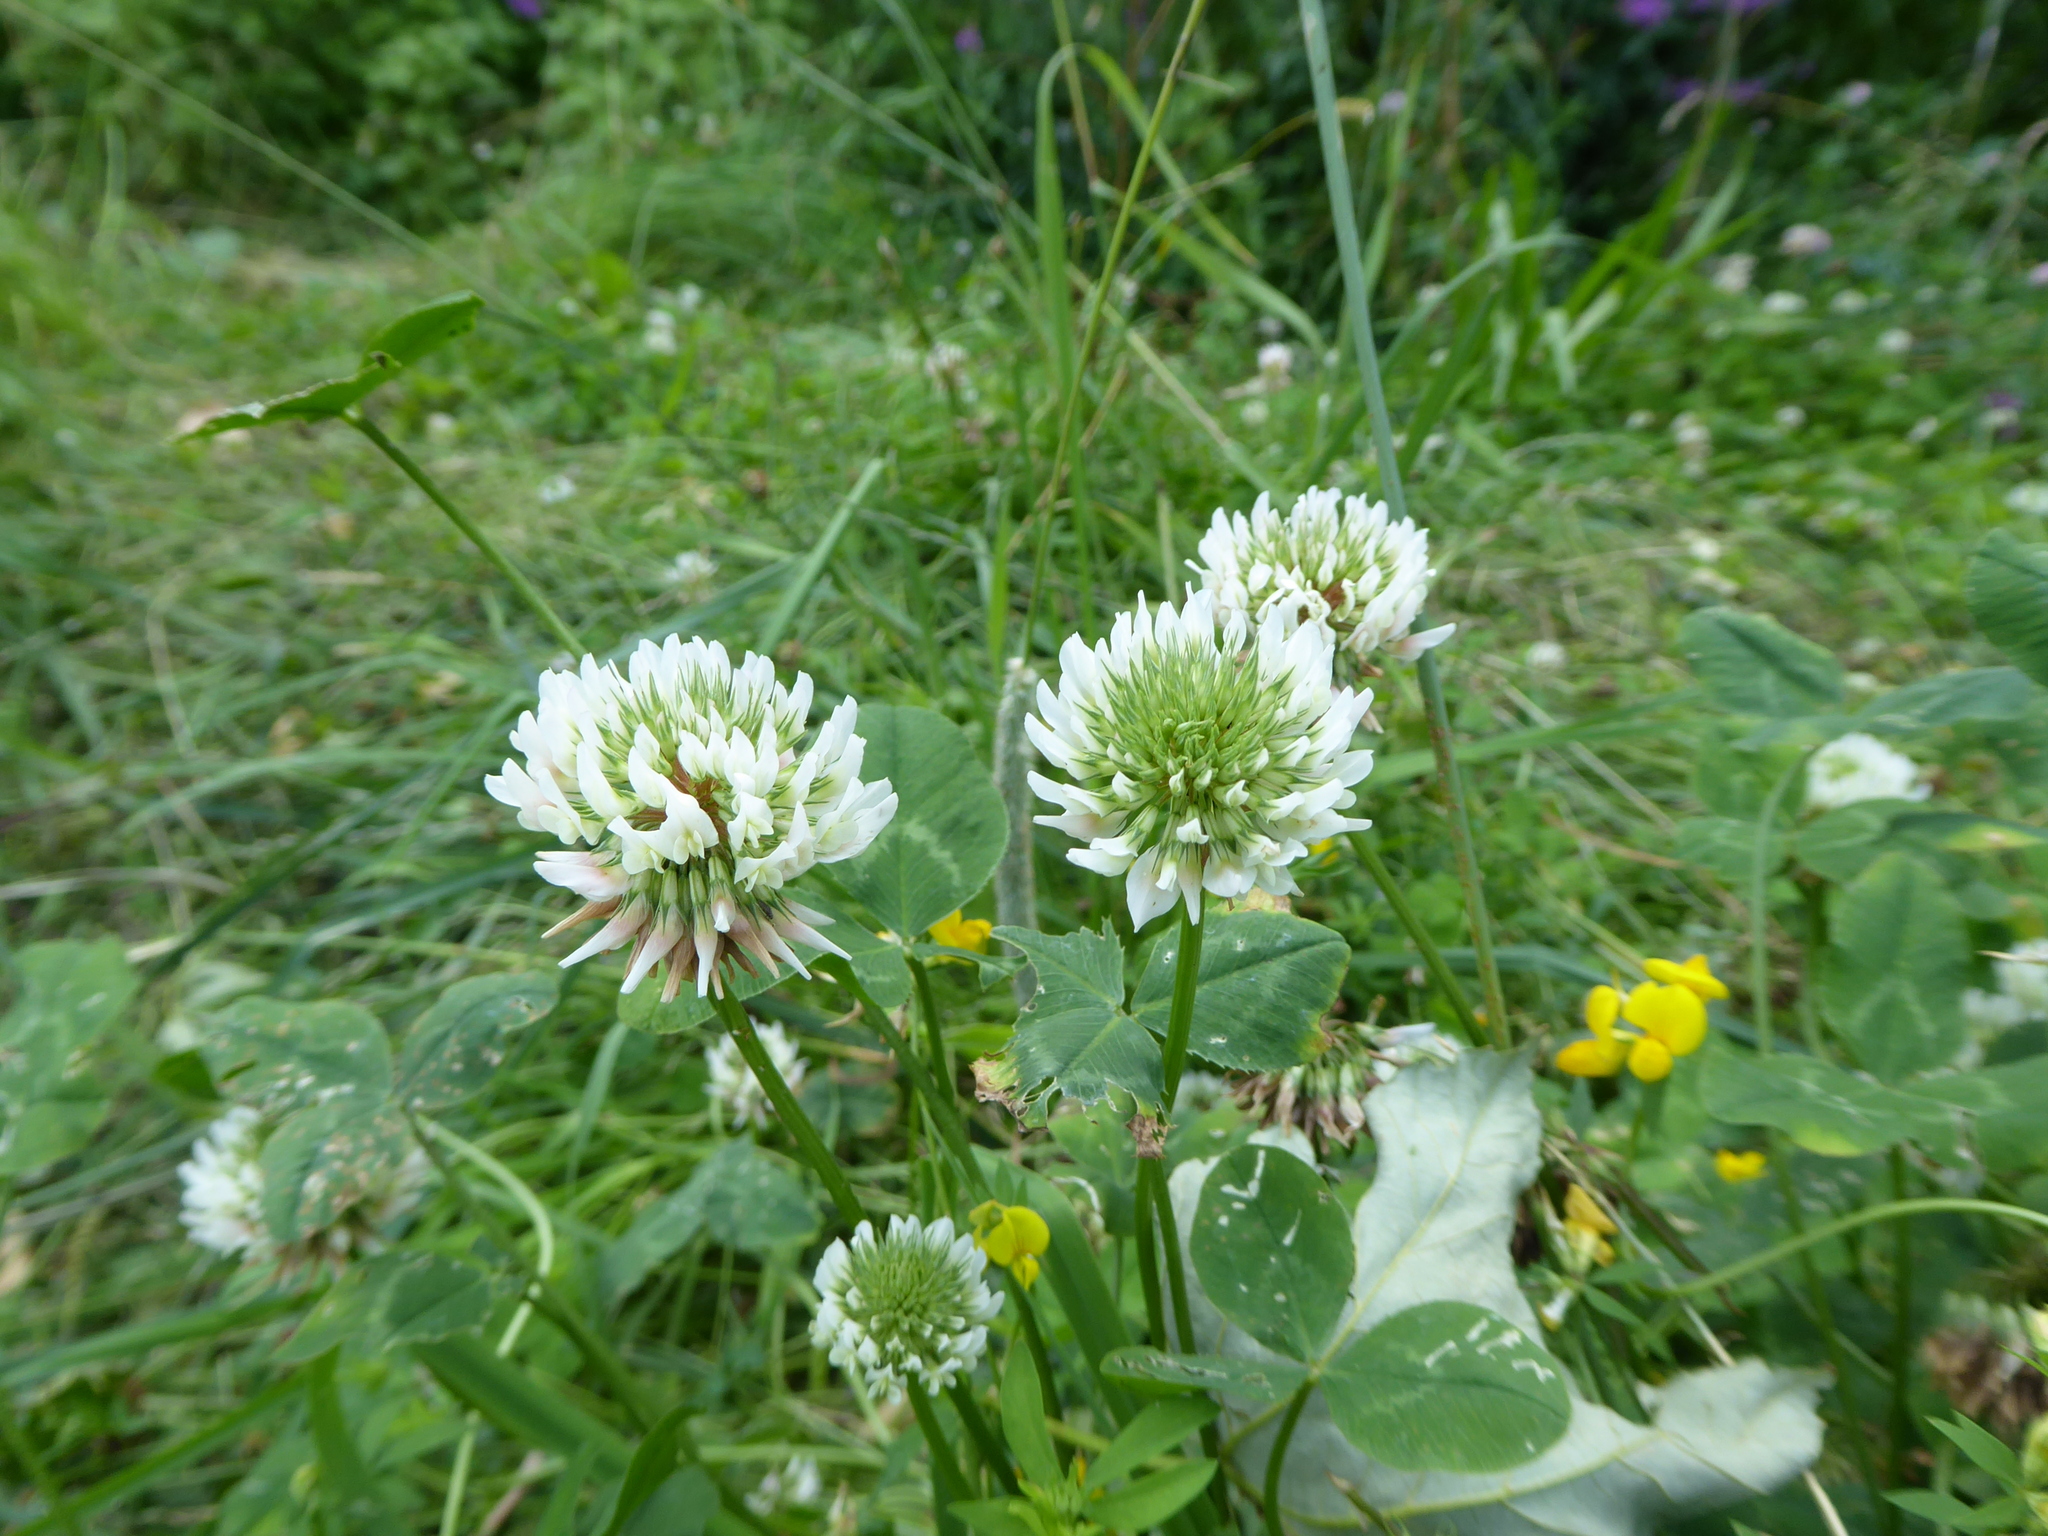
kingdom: Plantae
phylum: Tracheophyta
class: Magnoliopsida
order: Fabales
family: Fabaceae
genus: Trifolium
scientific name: Trifolium repens
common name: White clover
